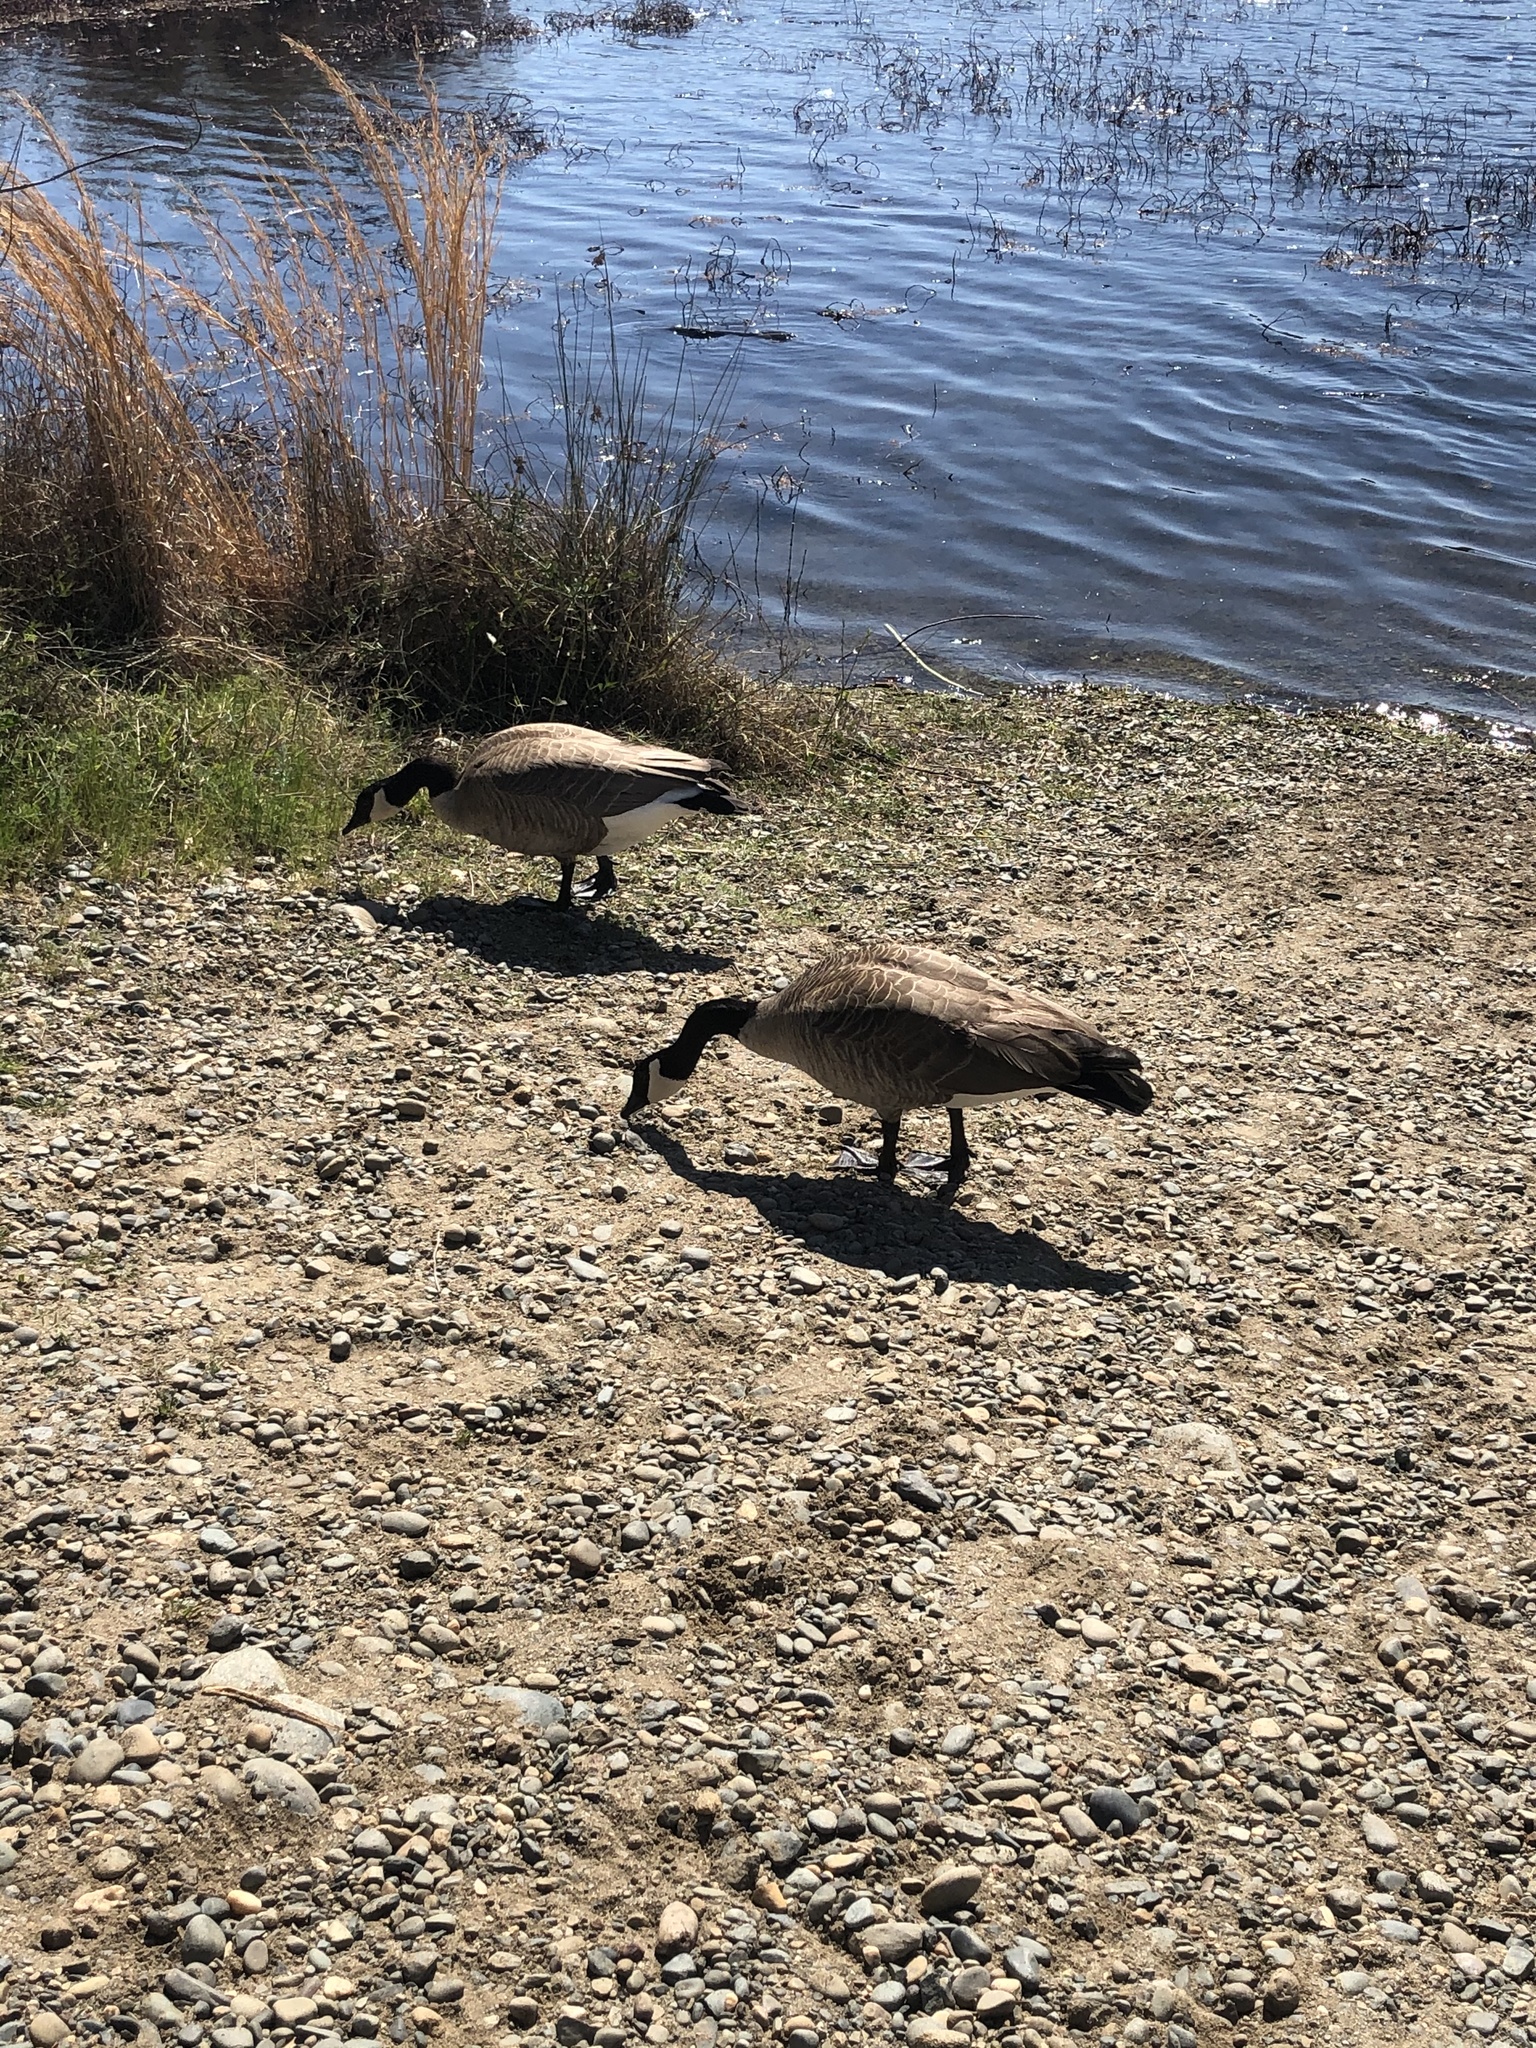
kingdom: Animalia
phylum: Chordata
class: Aves
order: Anseriformes
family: Anatidae
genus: Branta
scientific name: Branta canadensis
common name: Canada goose
